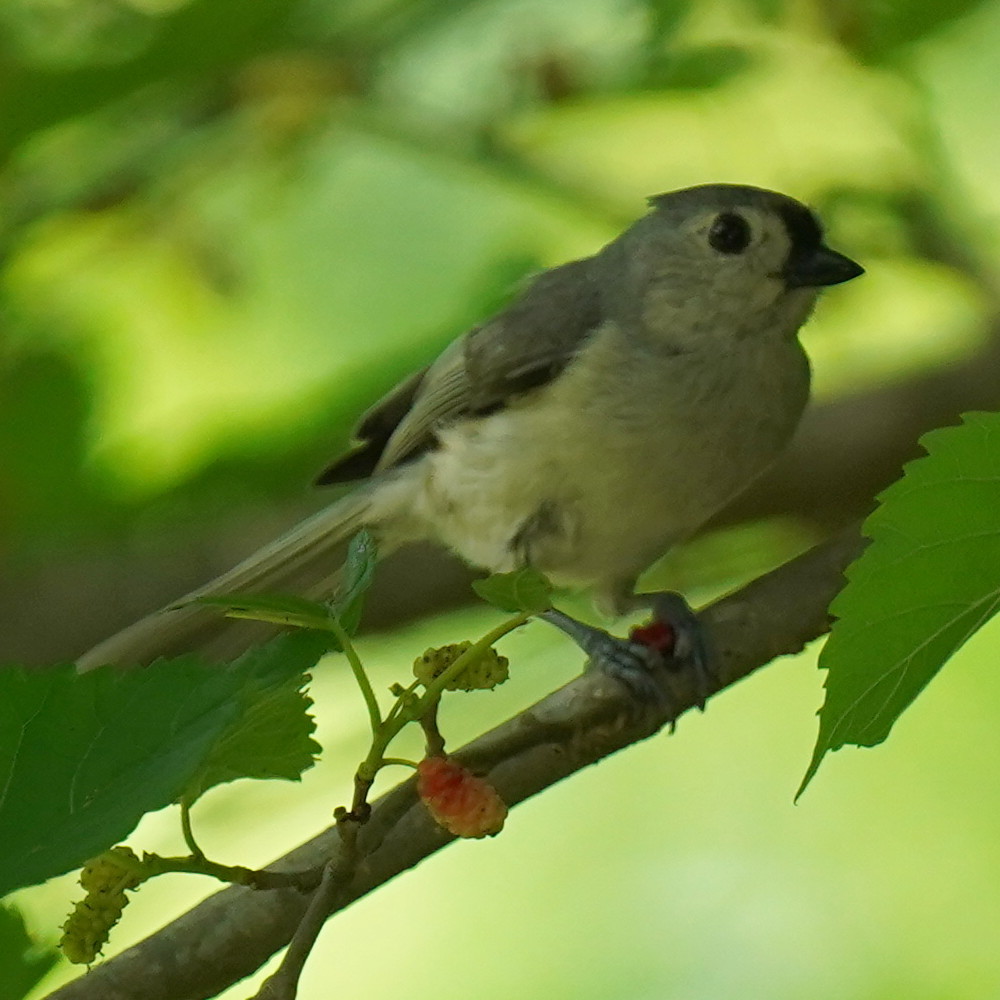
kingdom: Animalia
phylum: Chordata
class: Aves
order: Passeriformes
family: Paridae
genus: Baeolophus
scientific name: Baeolophus bicolor
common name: Tufted titmouse
